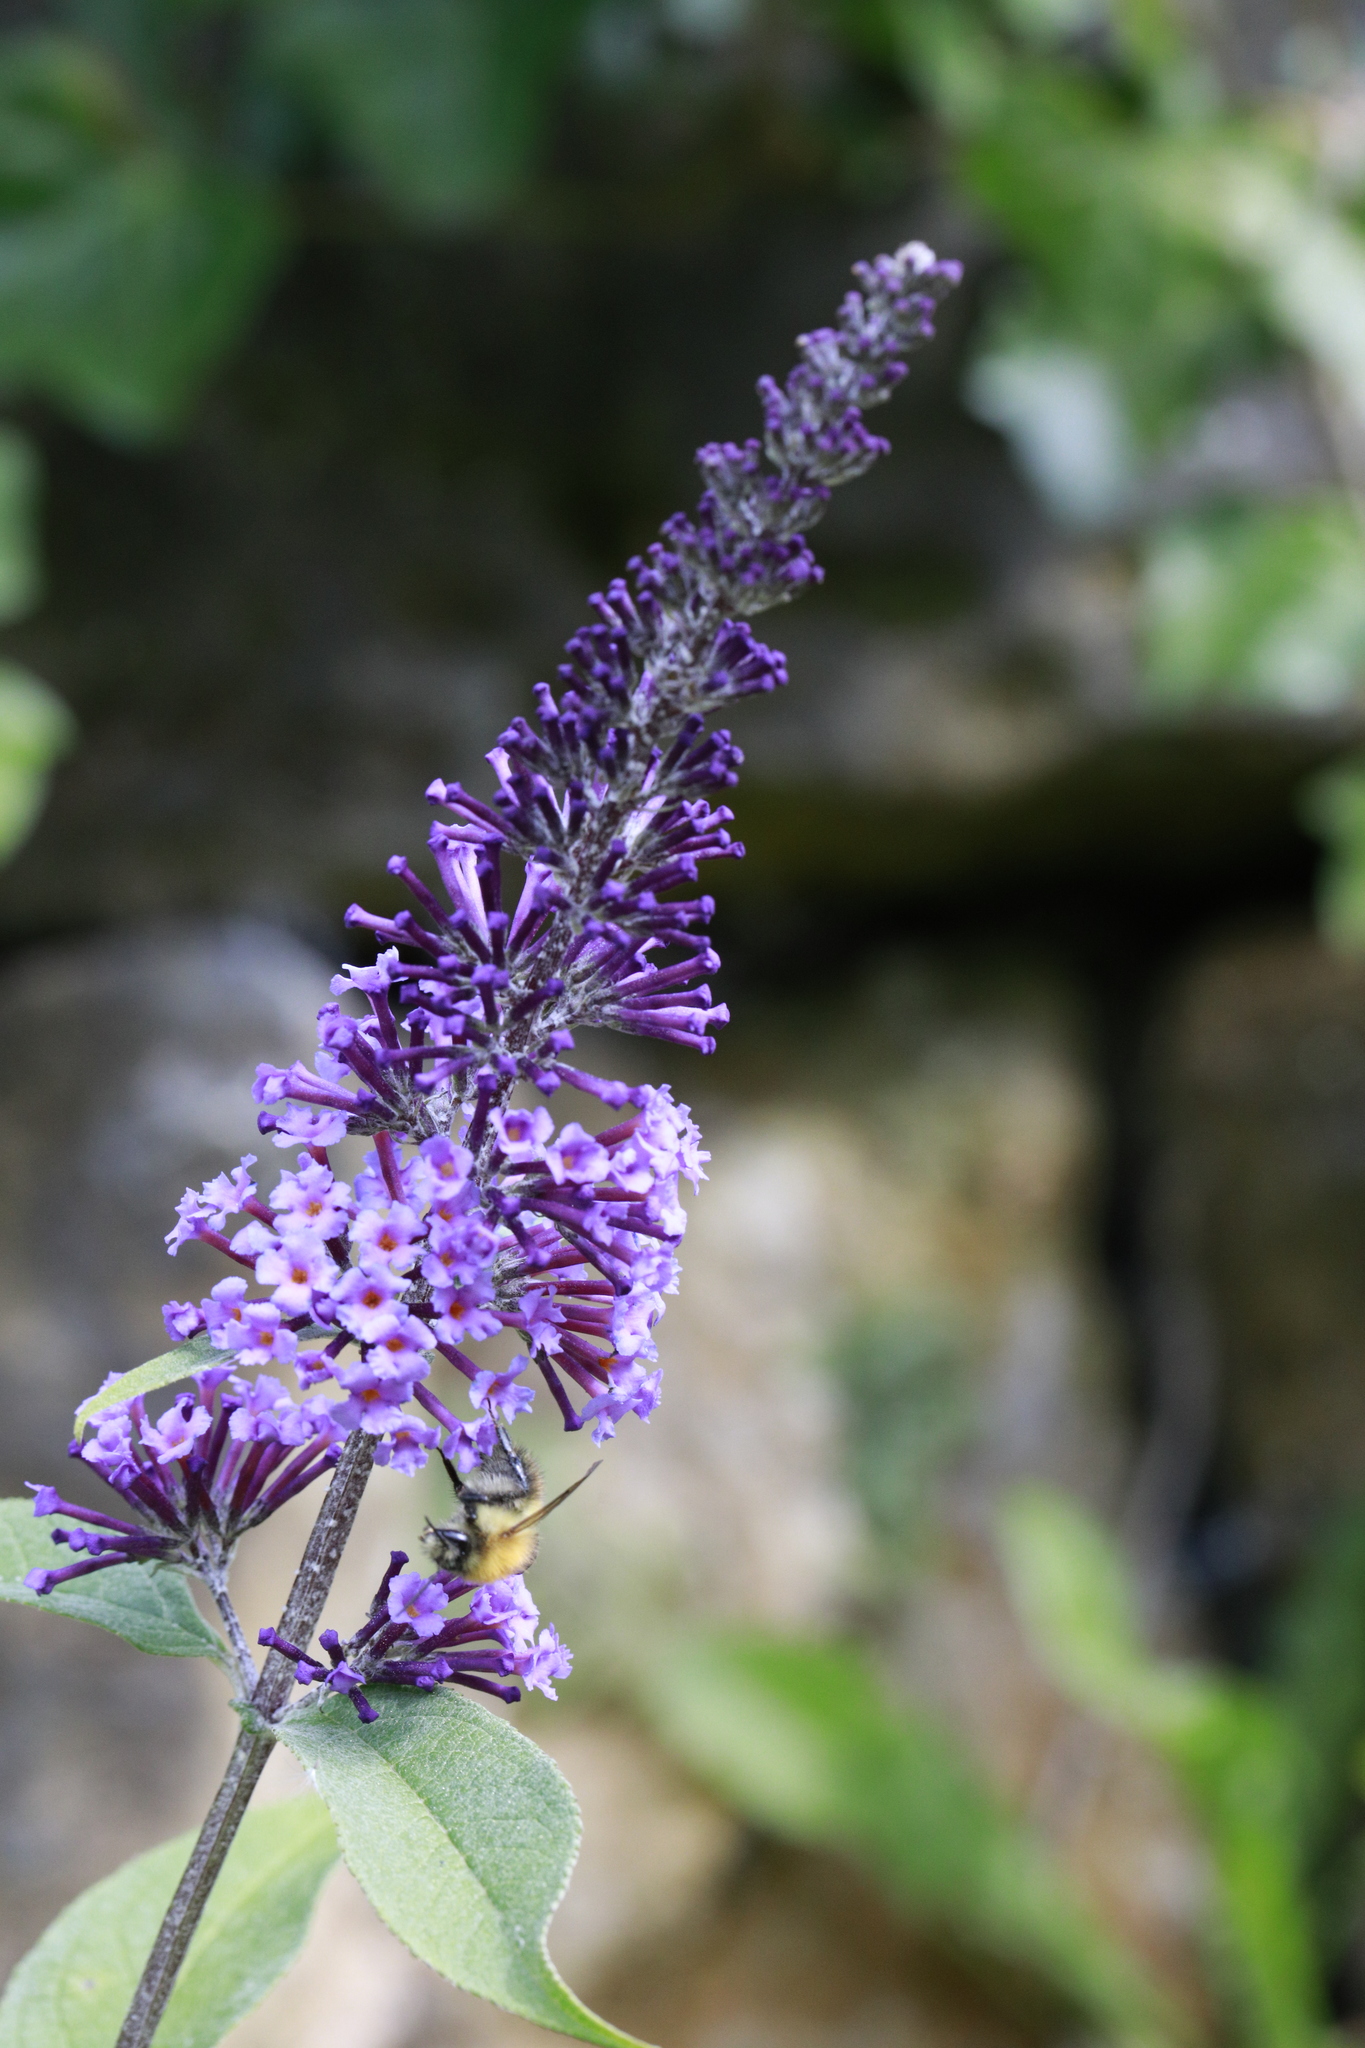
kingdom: Plantae
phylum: Tracheophyta
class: Magnoliopsida
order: Lamiales
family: Scrophulariaceae
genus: Buddleja
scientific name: Buddleja davidii
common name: Butterfly-bush
